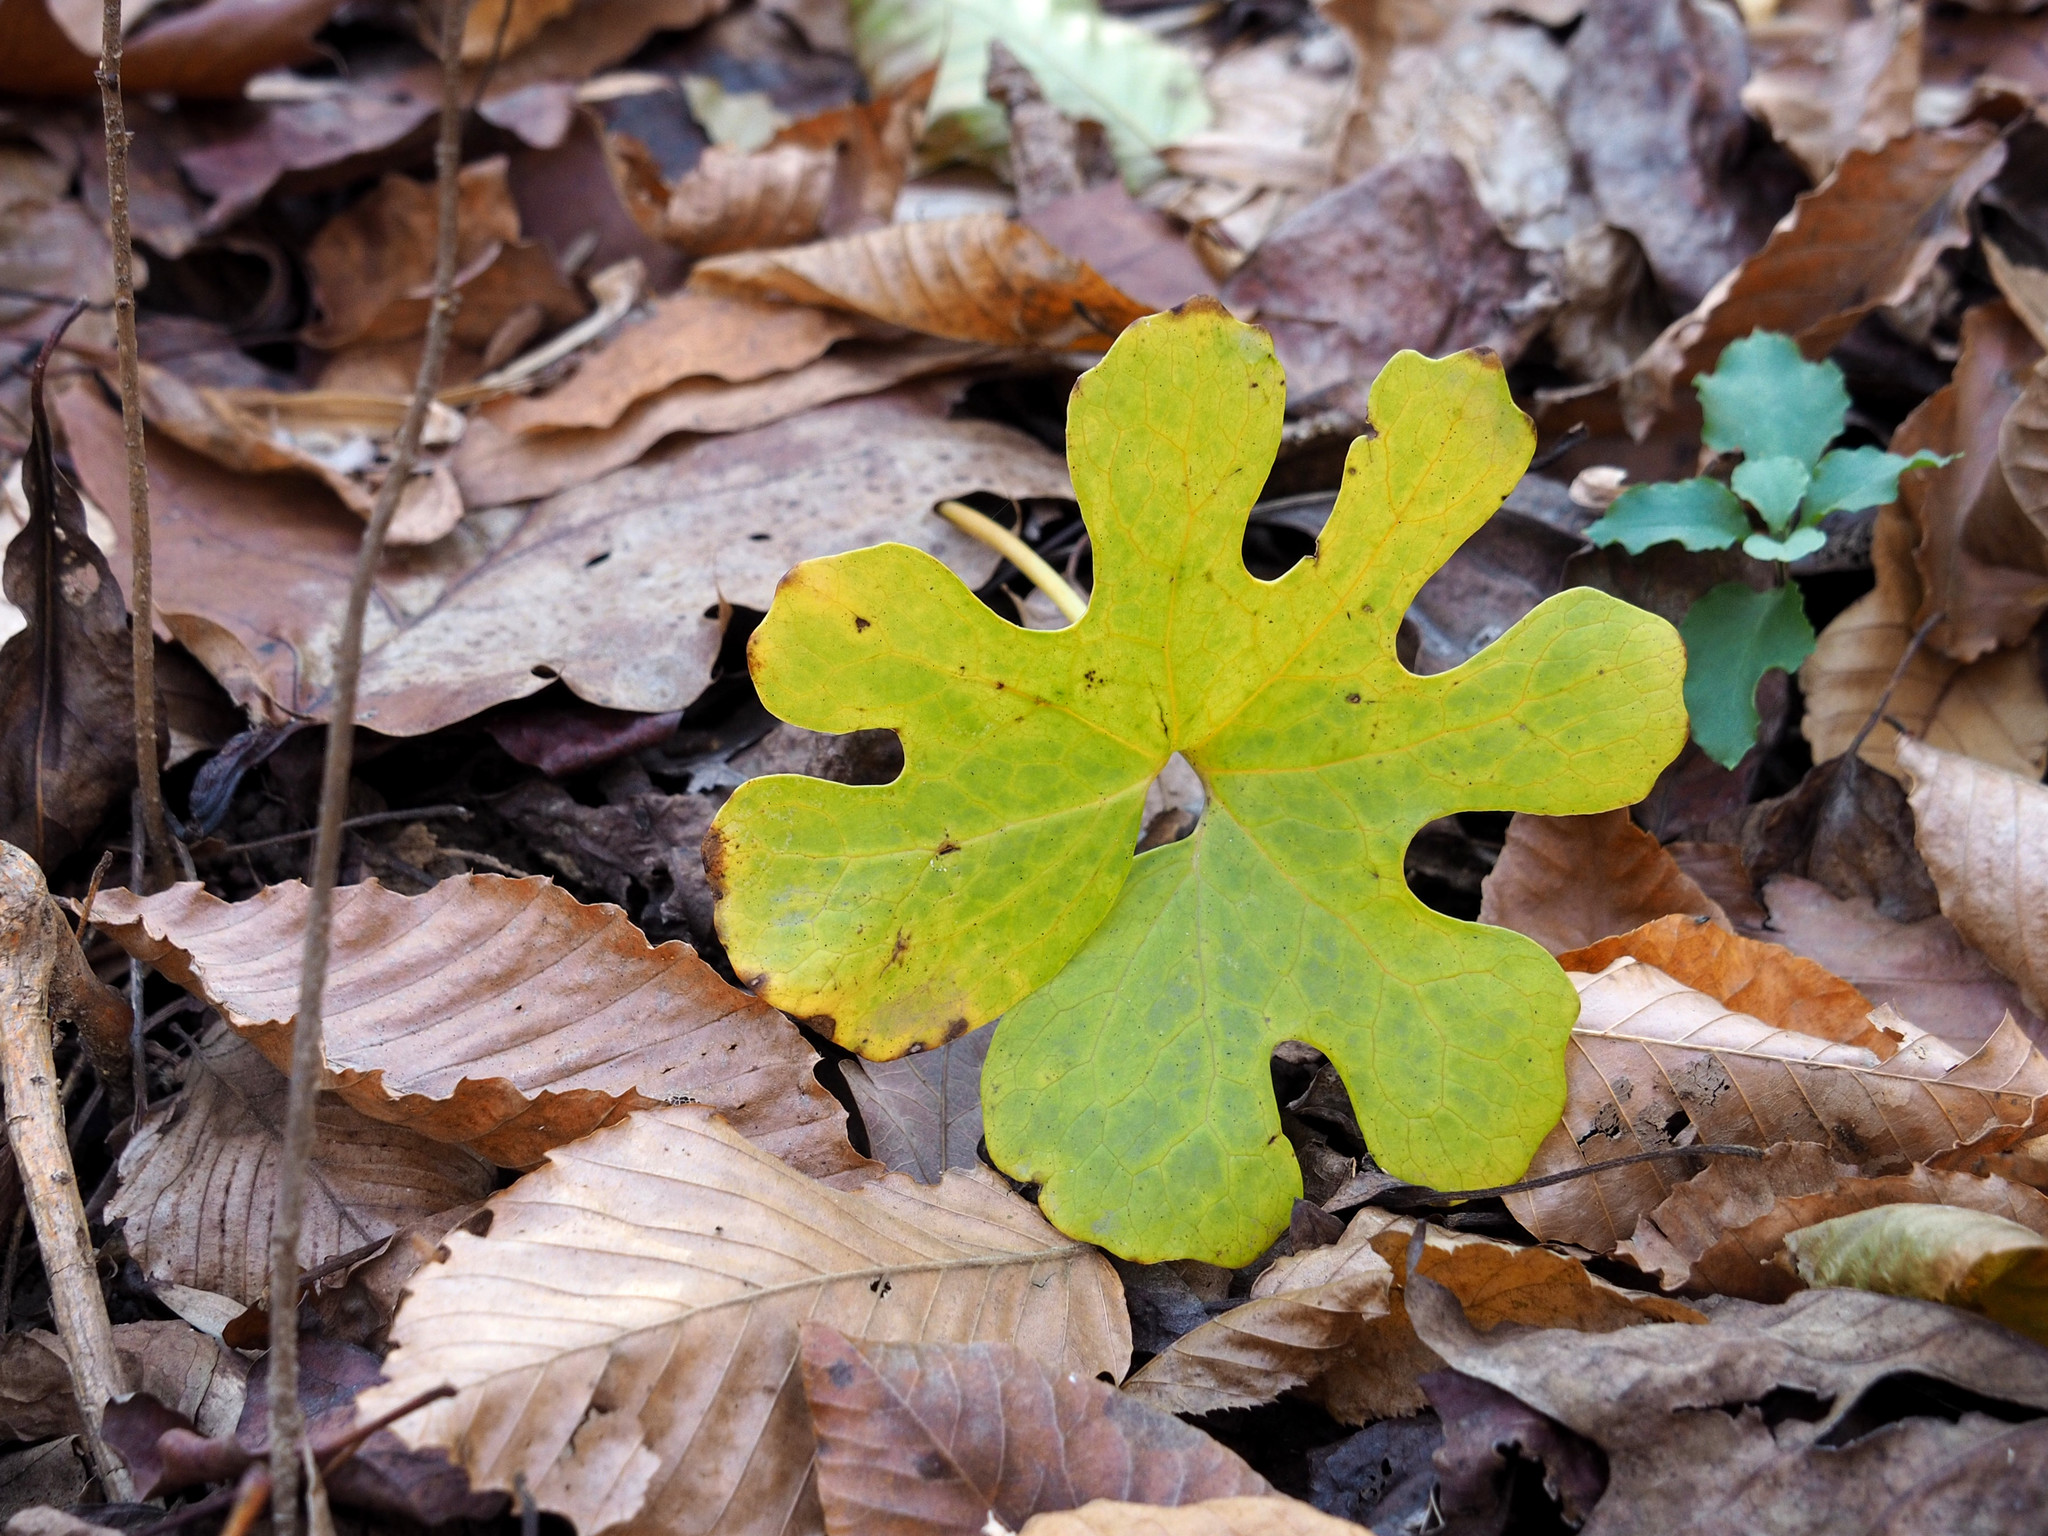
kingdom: Plantae
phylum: Tracheophyta
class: Magnoliopsida
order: Ranunculales
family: Papaveraceae
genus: Sanguinaria
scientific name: Sanguinaria canadensis
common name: Bloodroot
